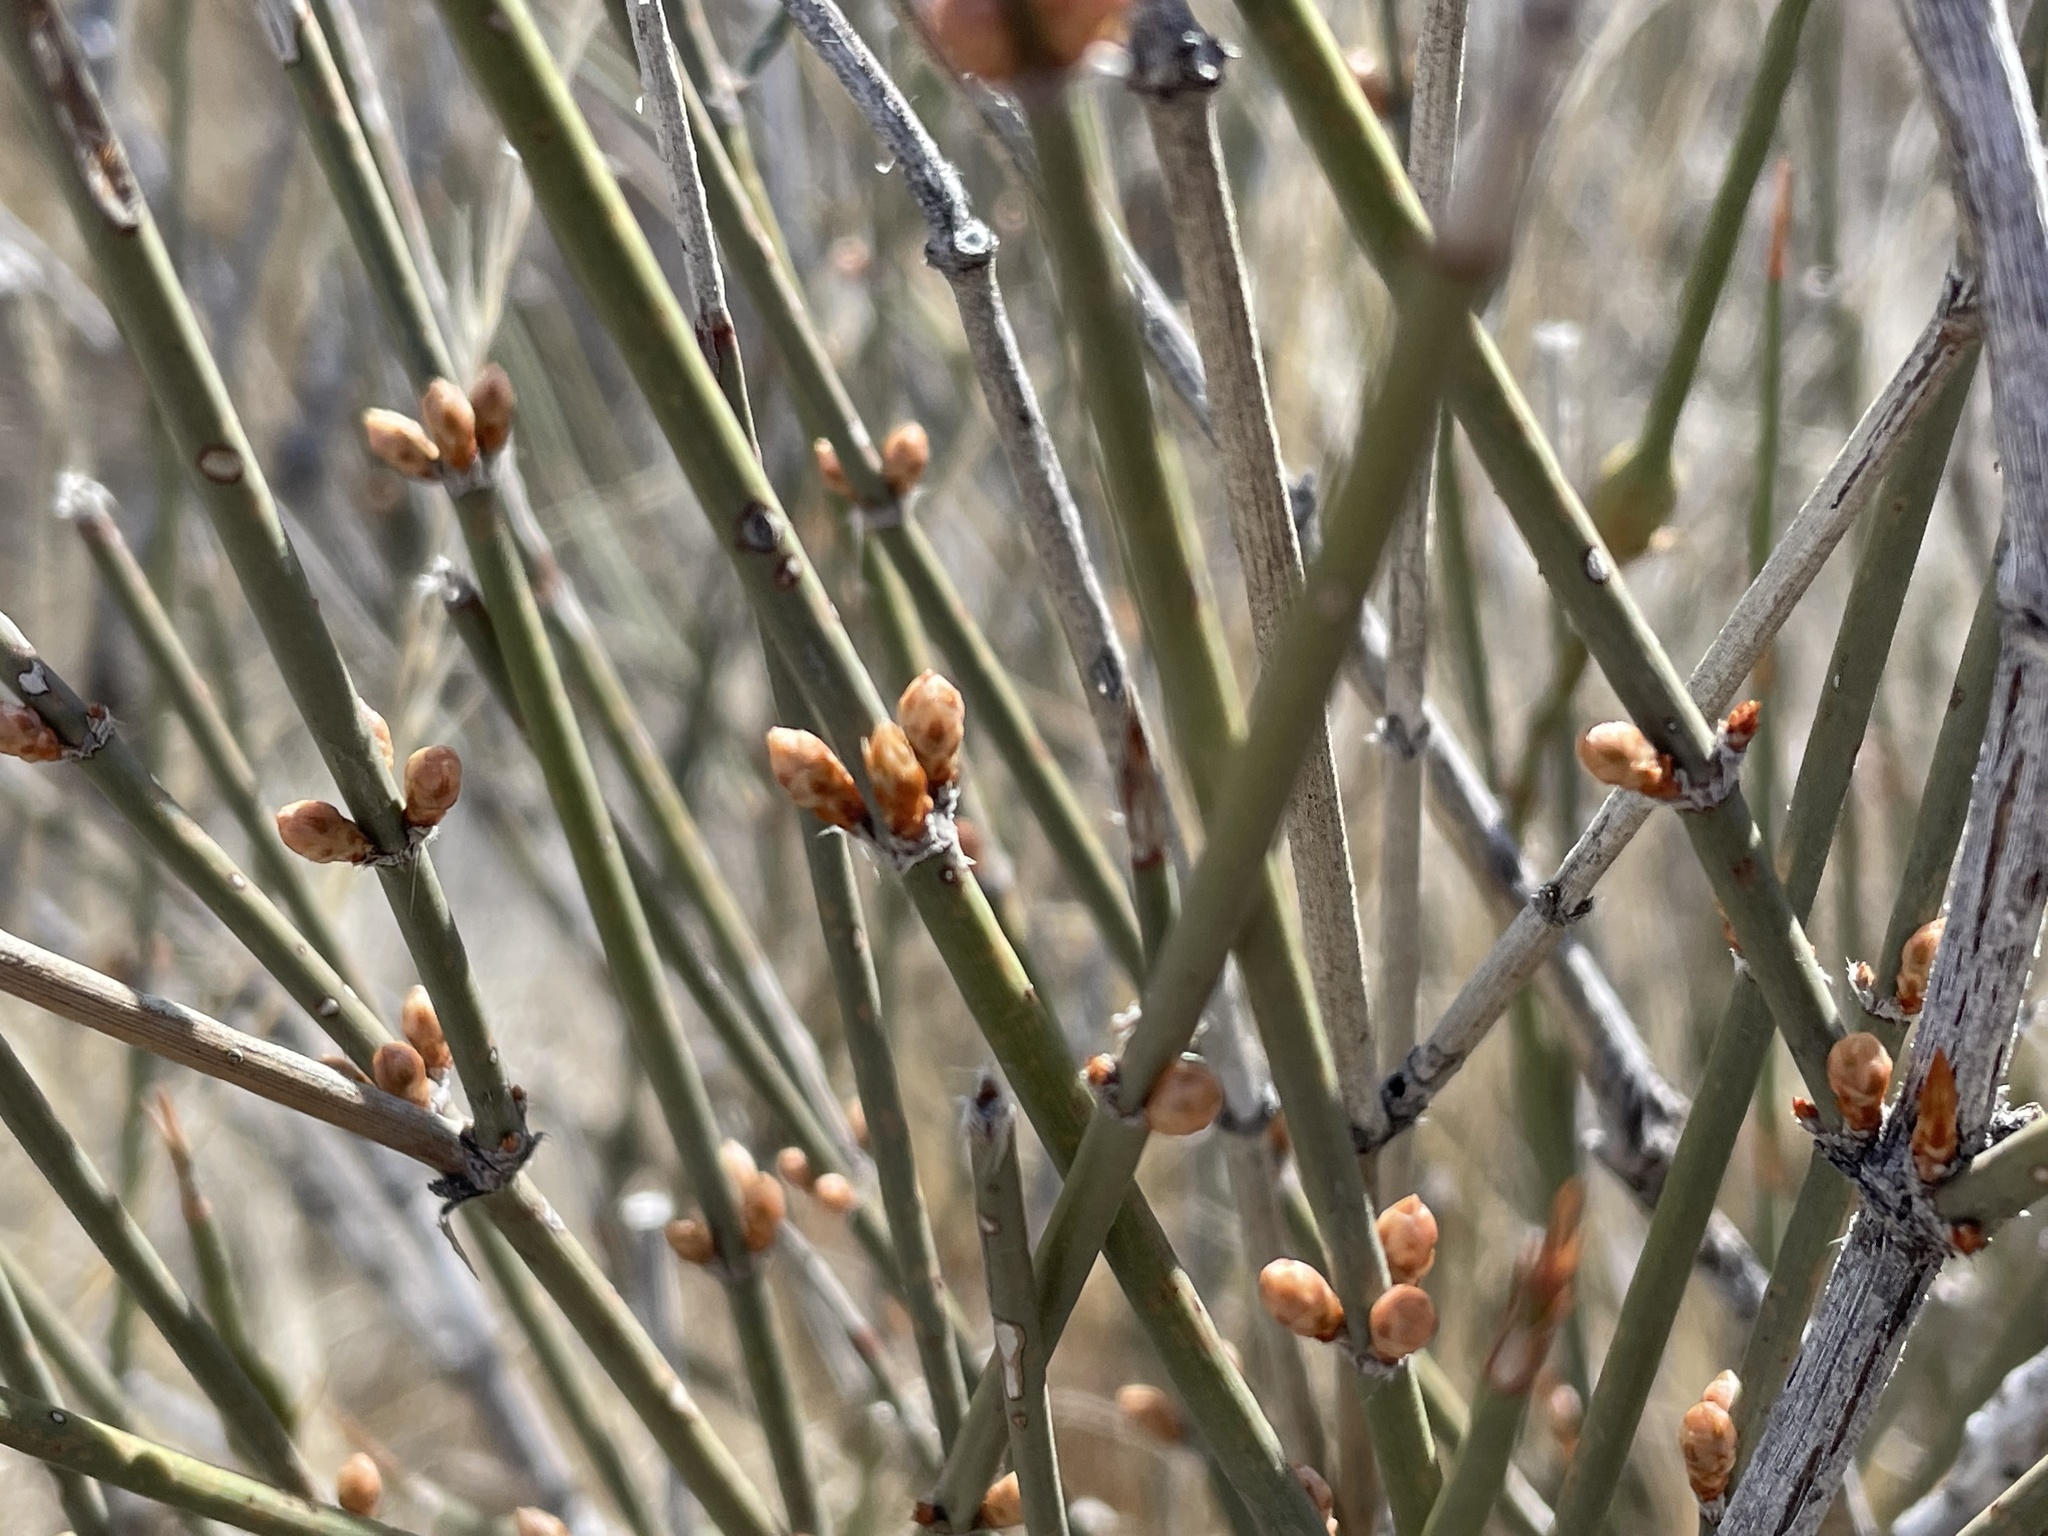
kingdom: Plantae
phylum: Tracheophyta
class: Gnetopsida
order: Ephedrales
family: Ephedraceae
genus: Ephedra
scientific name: Ephedra trifurca
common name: Mexican-tea
